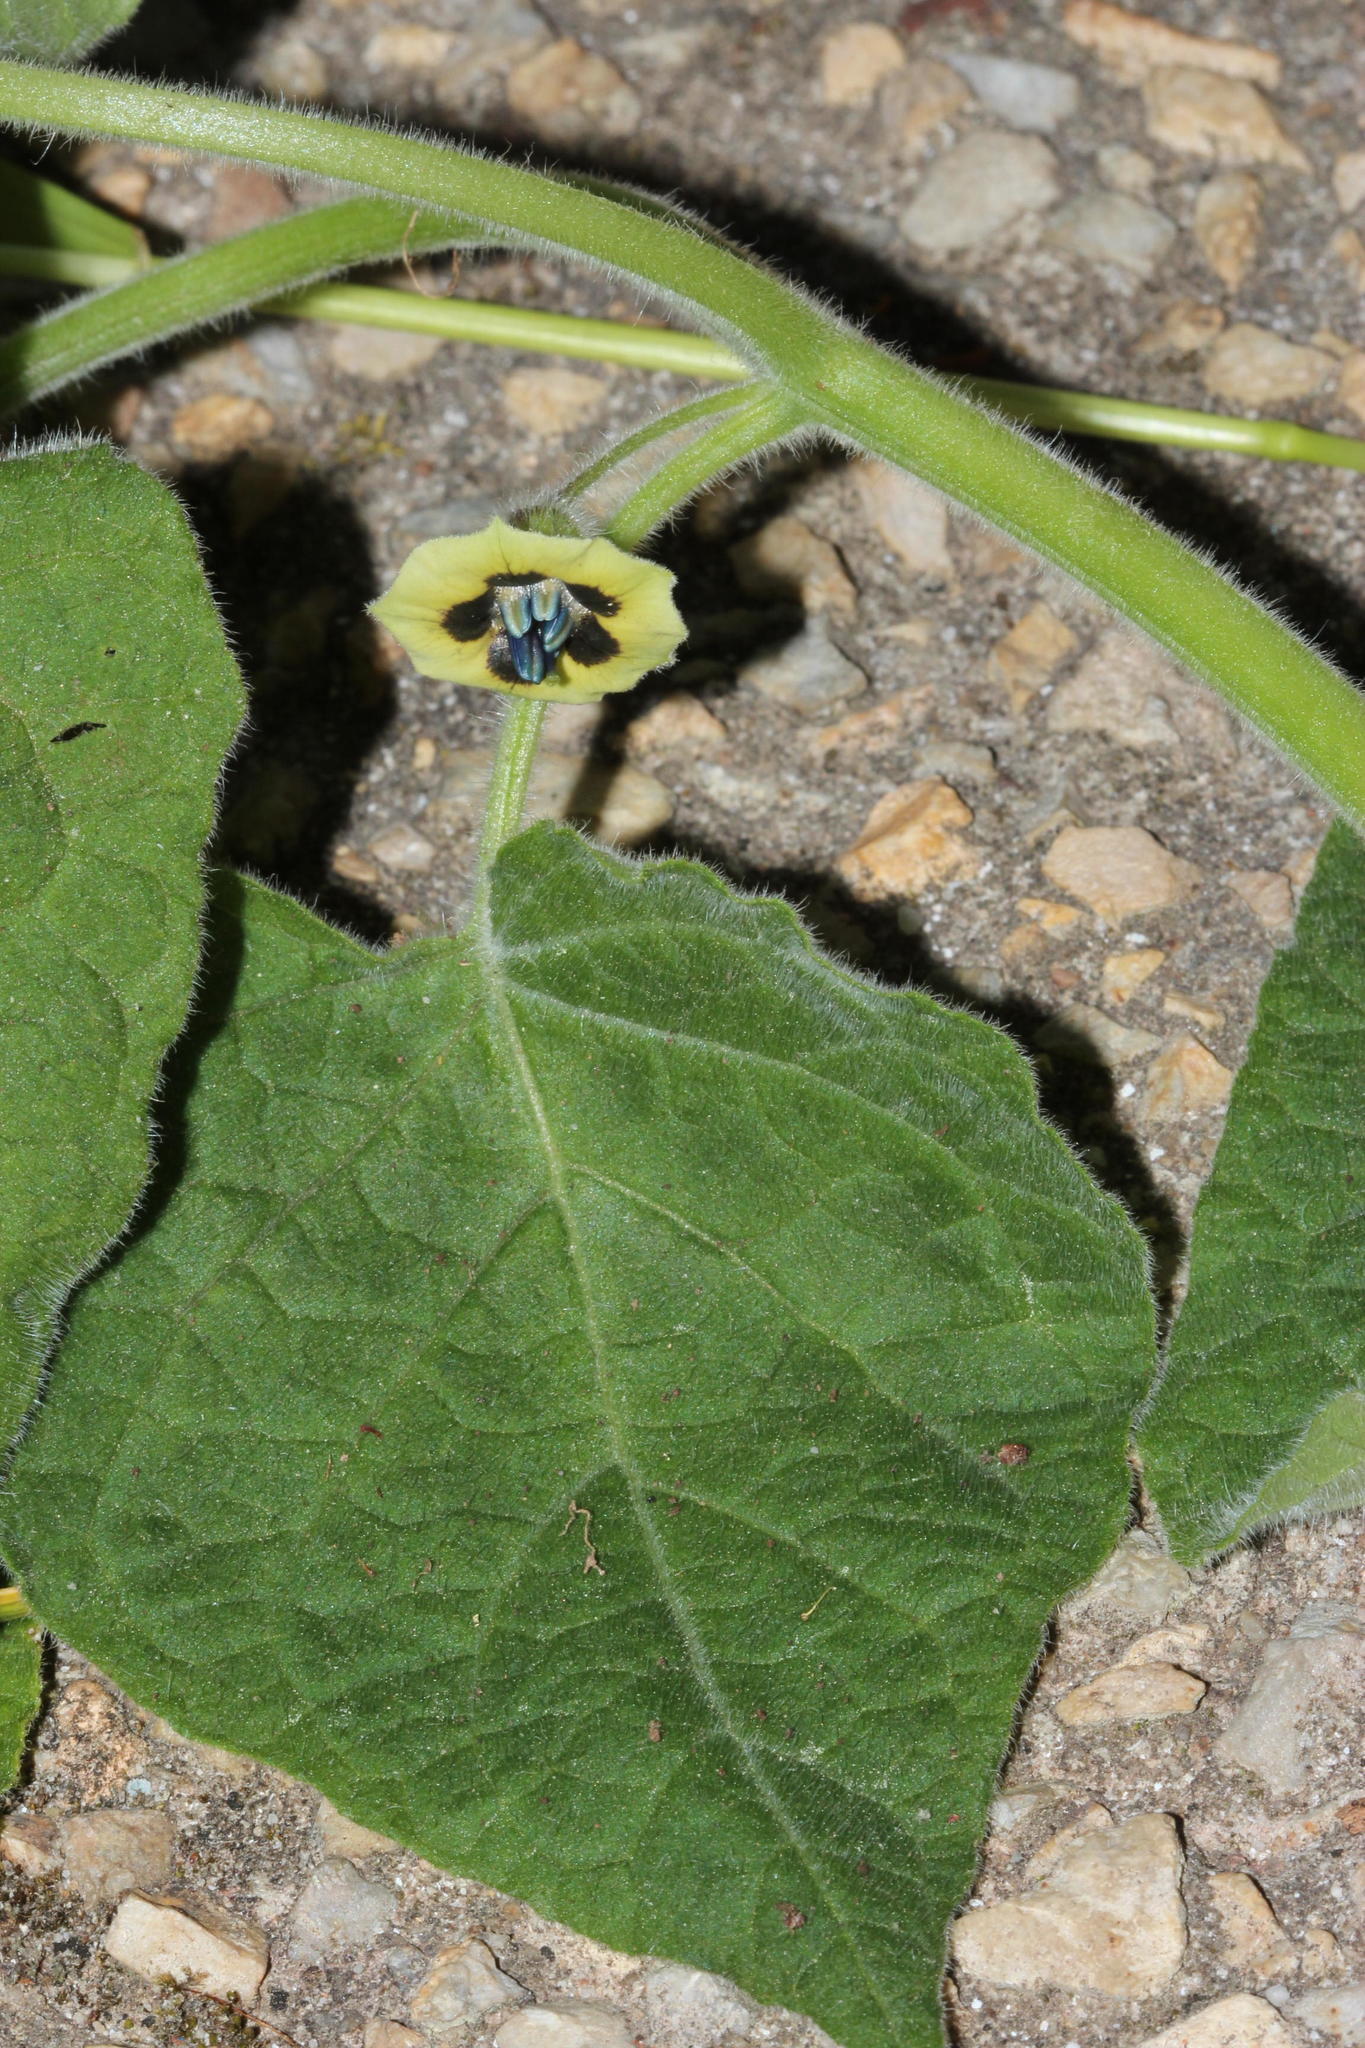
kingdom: Plantae
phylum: Tracheophyta
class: Magnoliopsida
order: Solanales
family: Solanaceae
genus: Physalis
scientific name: Physalis peruviana
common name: Cape-gooseberry
